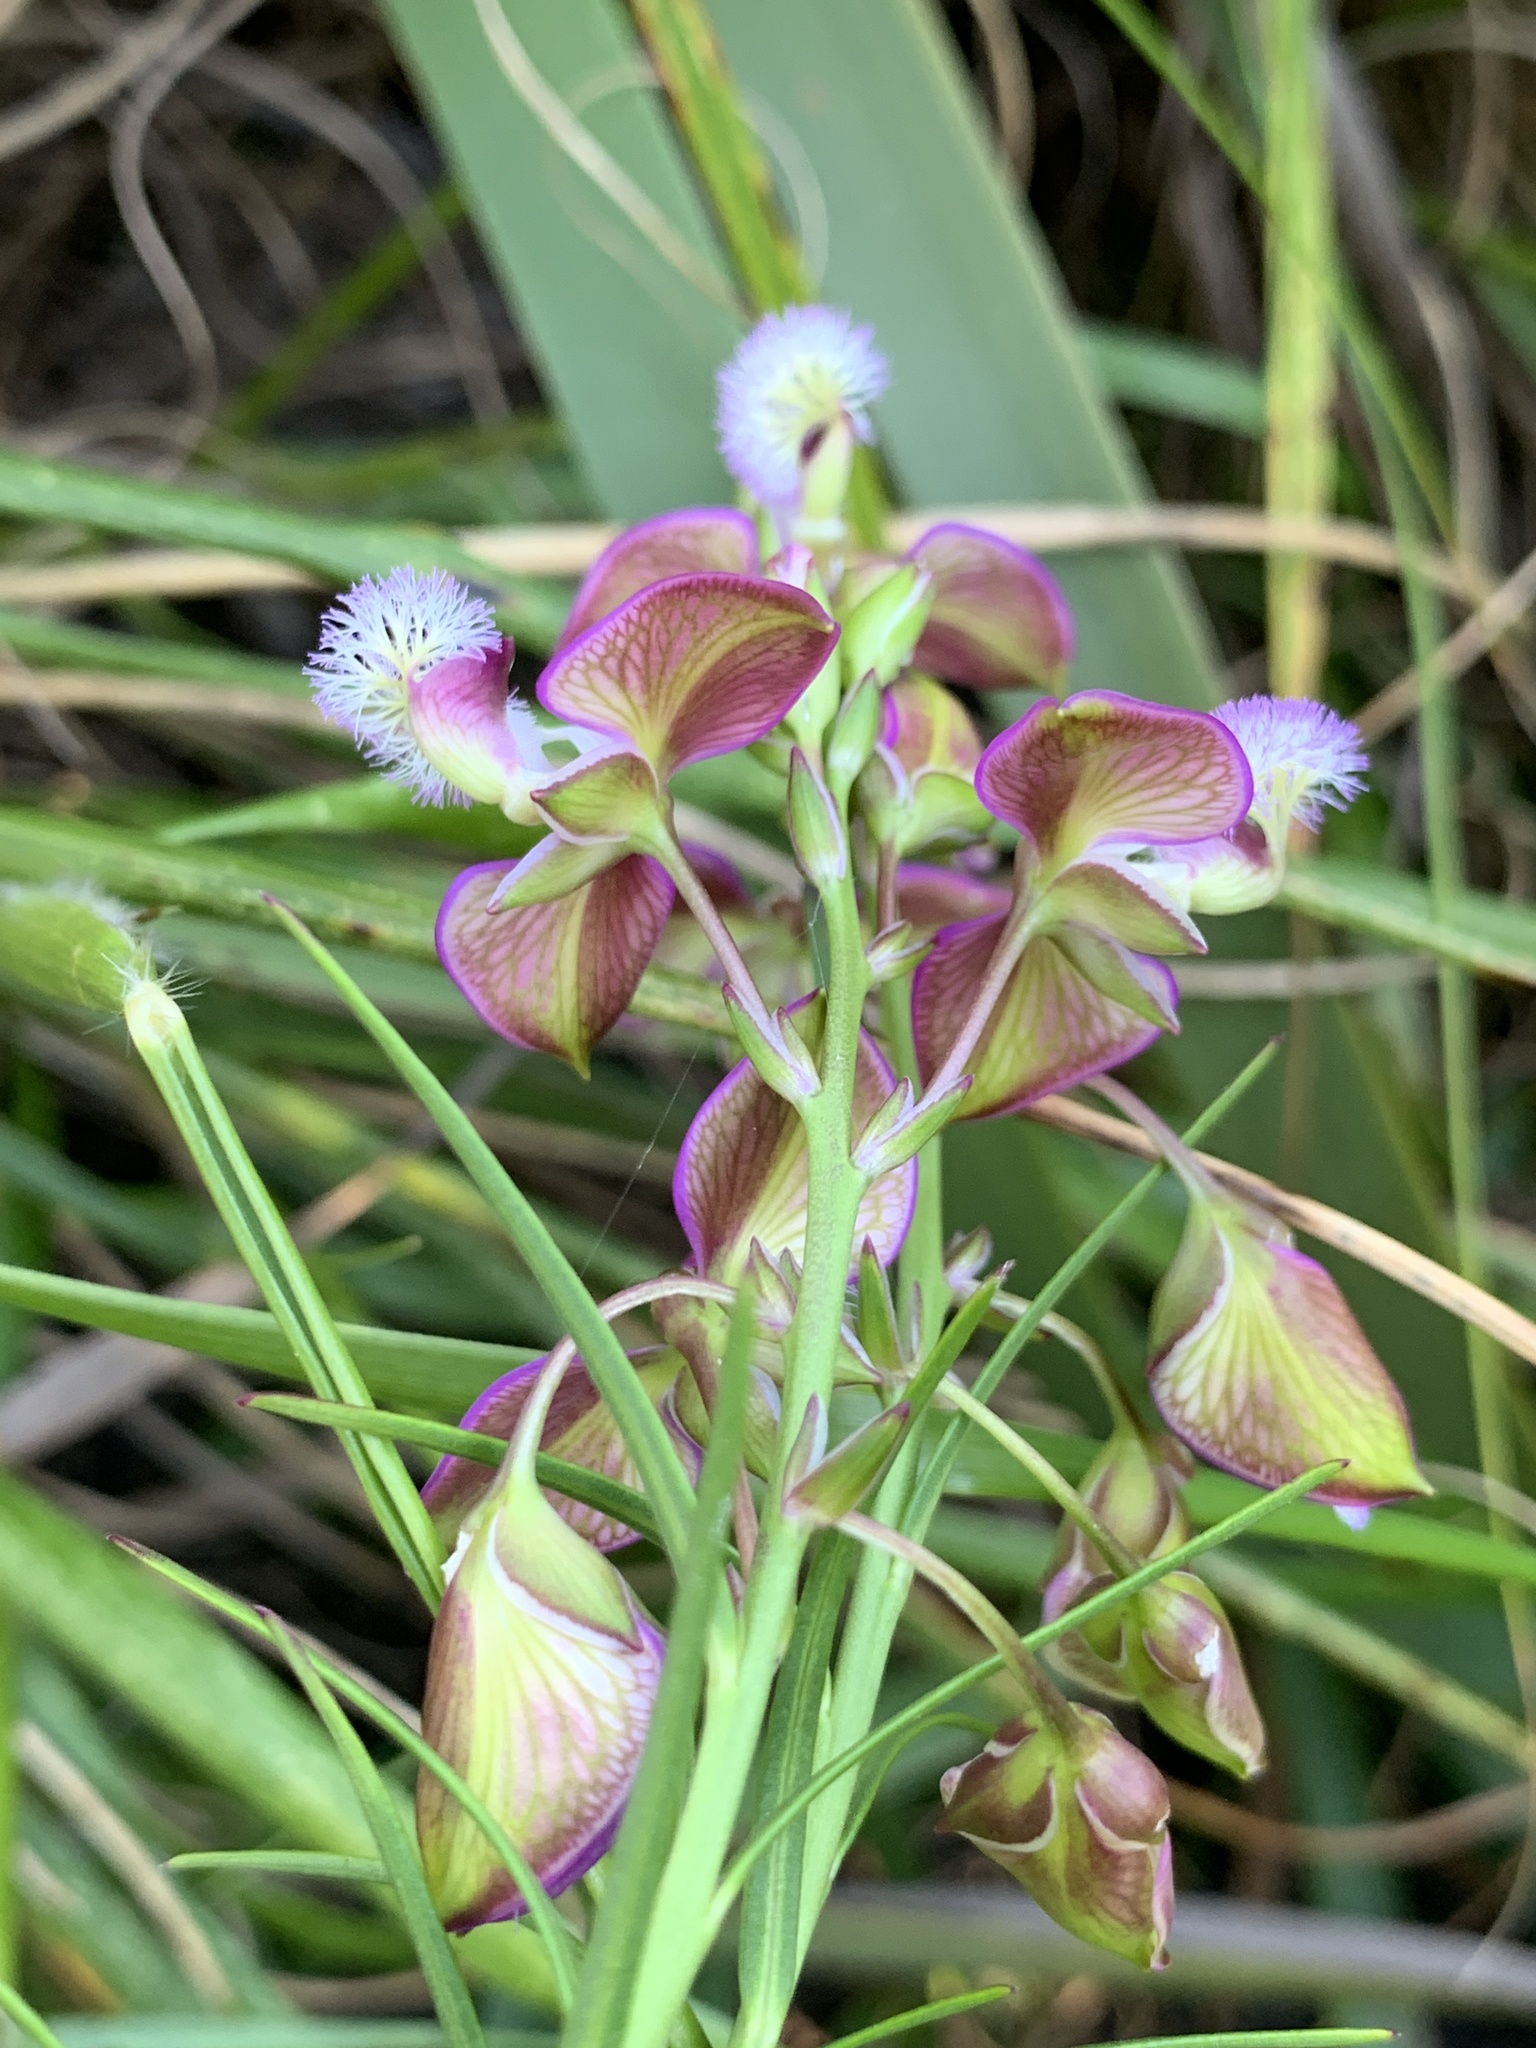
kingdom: Plantae
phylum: Tracheophyta
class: Magnoliopsida
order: Fabales
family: Polygalaceae
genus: Polygala
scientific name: Polygala bracteolata
